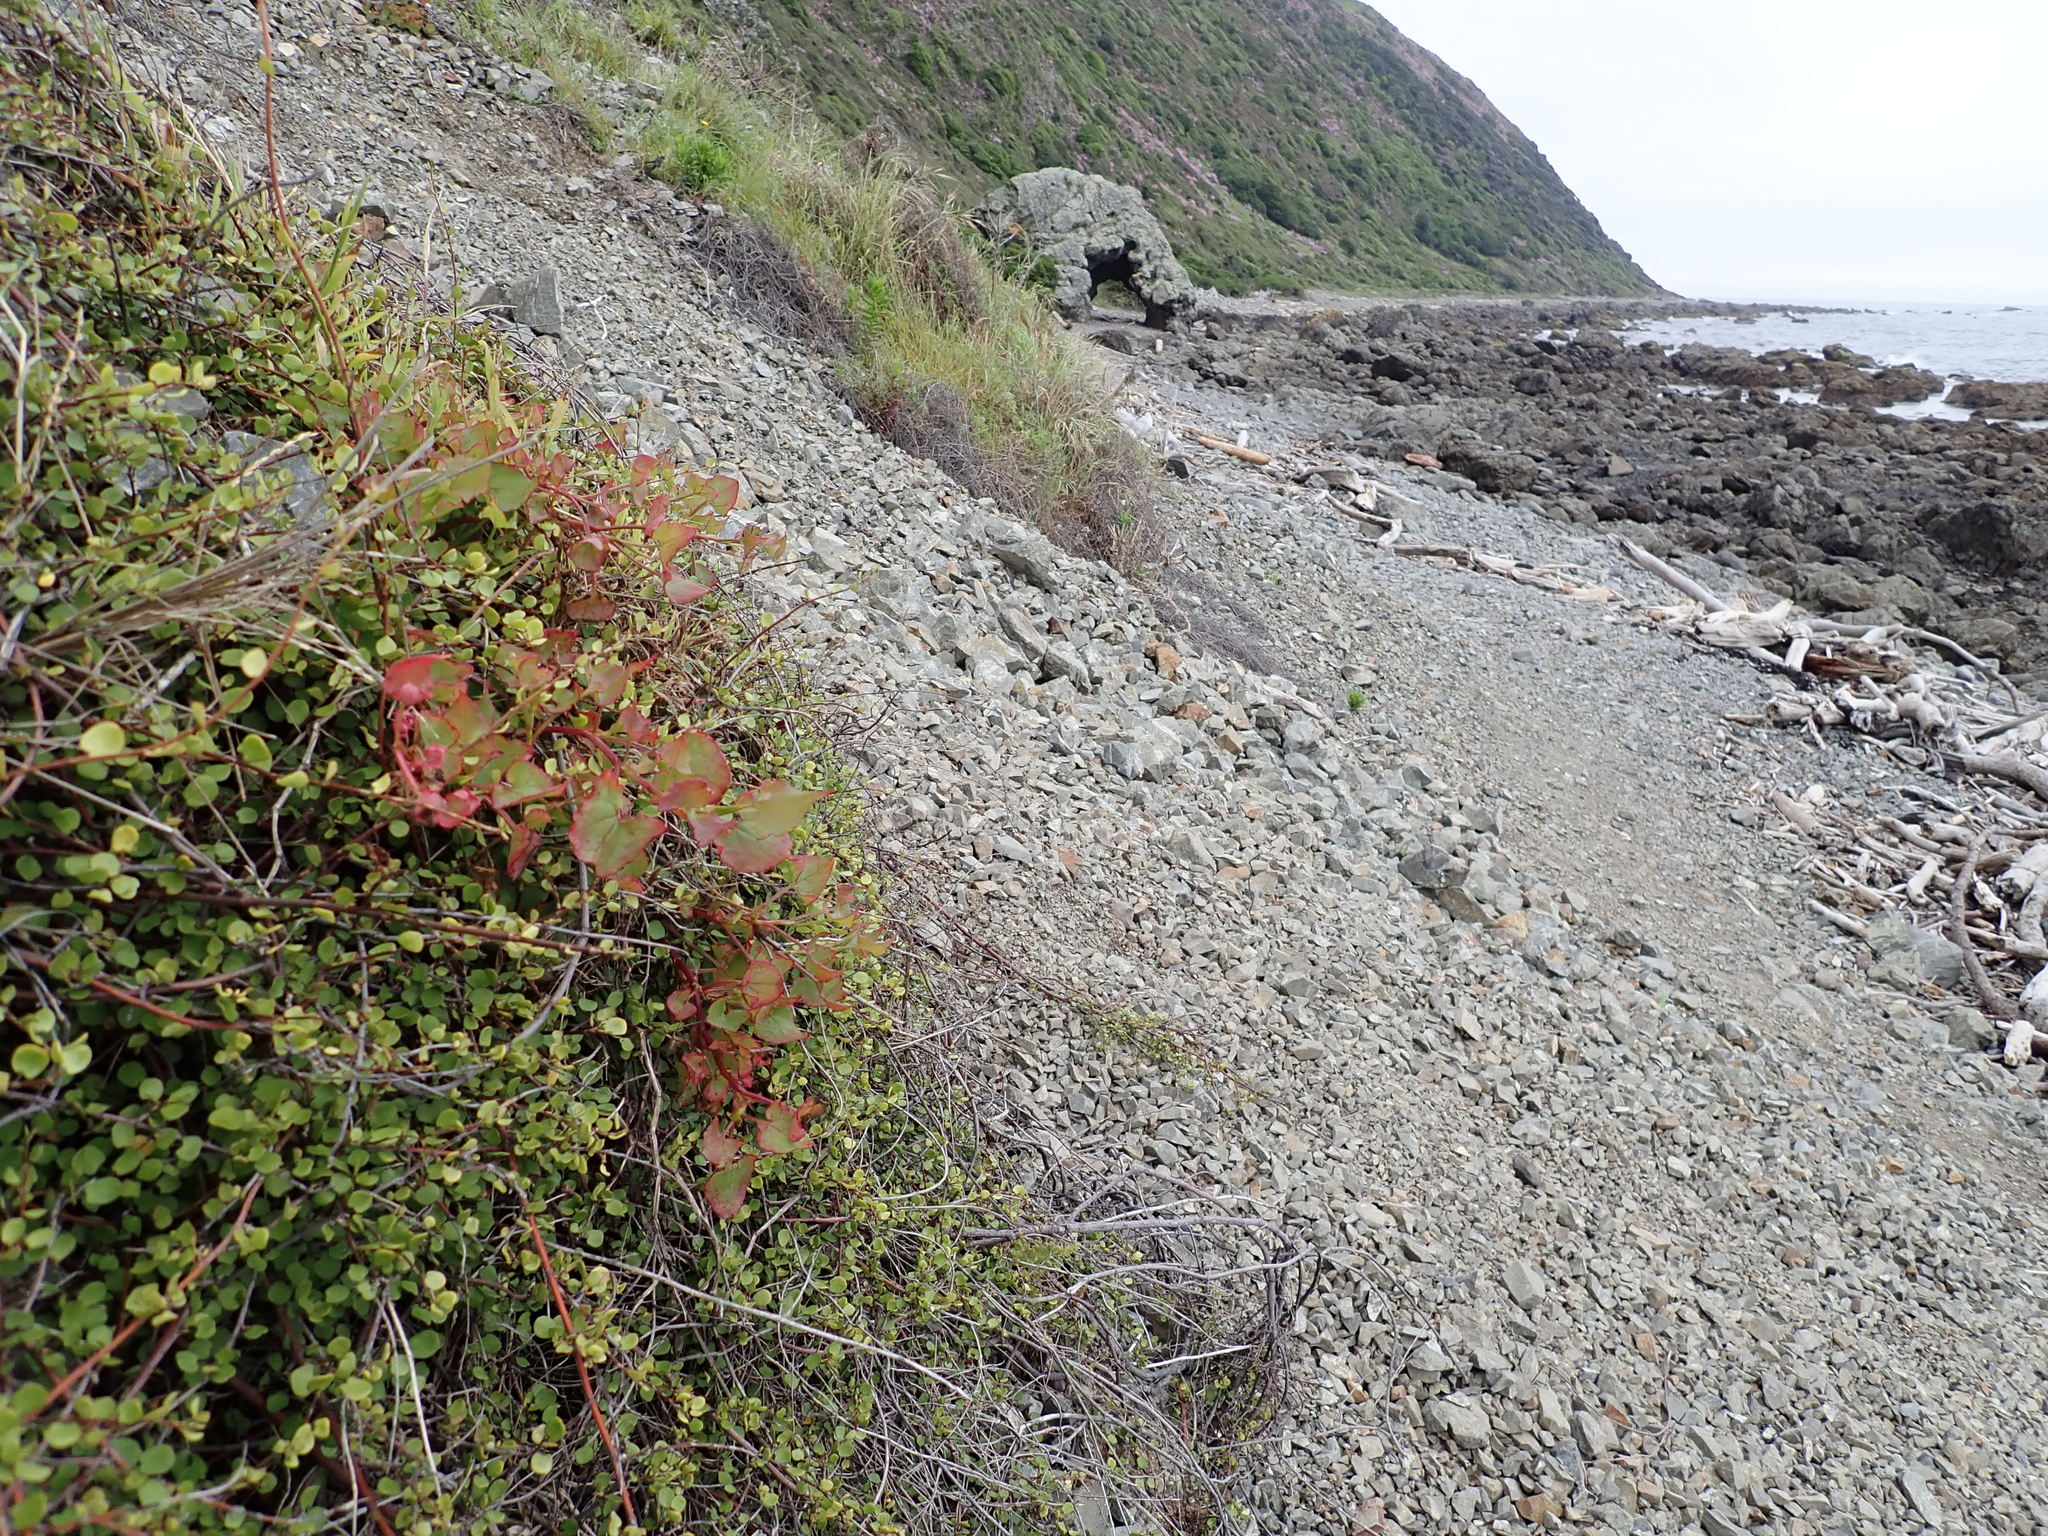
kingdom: Plantae
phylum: Tracheophyta
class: Magnoliopsida
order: Caryophyllales
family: Polygonaceae
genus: Rumex
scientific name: Rumex sagittatus
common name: Climbing dock
